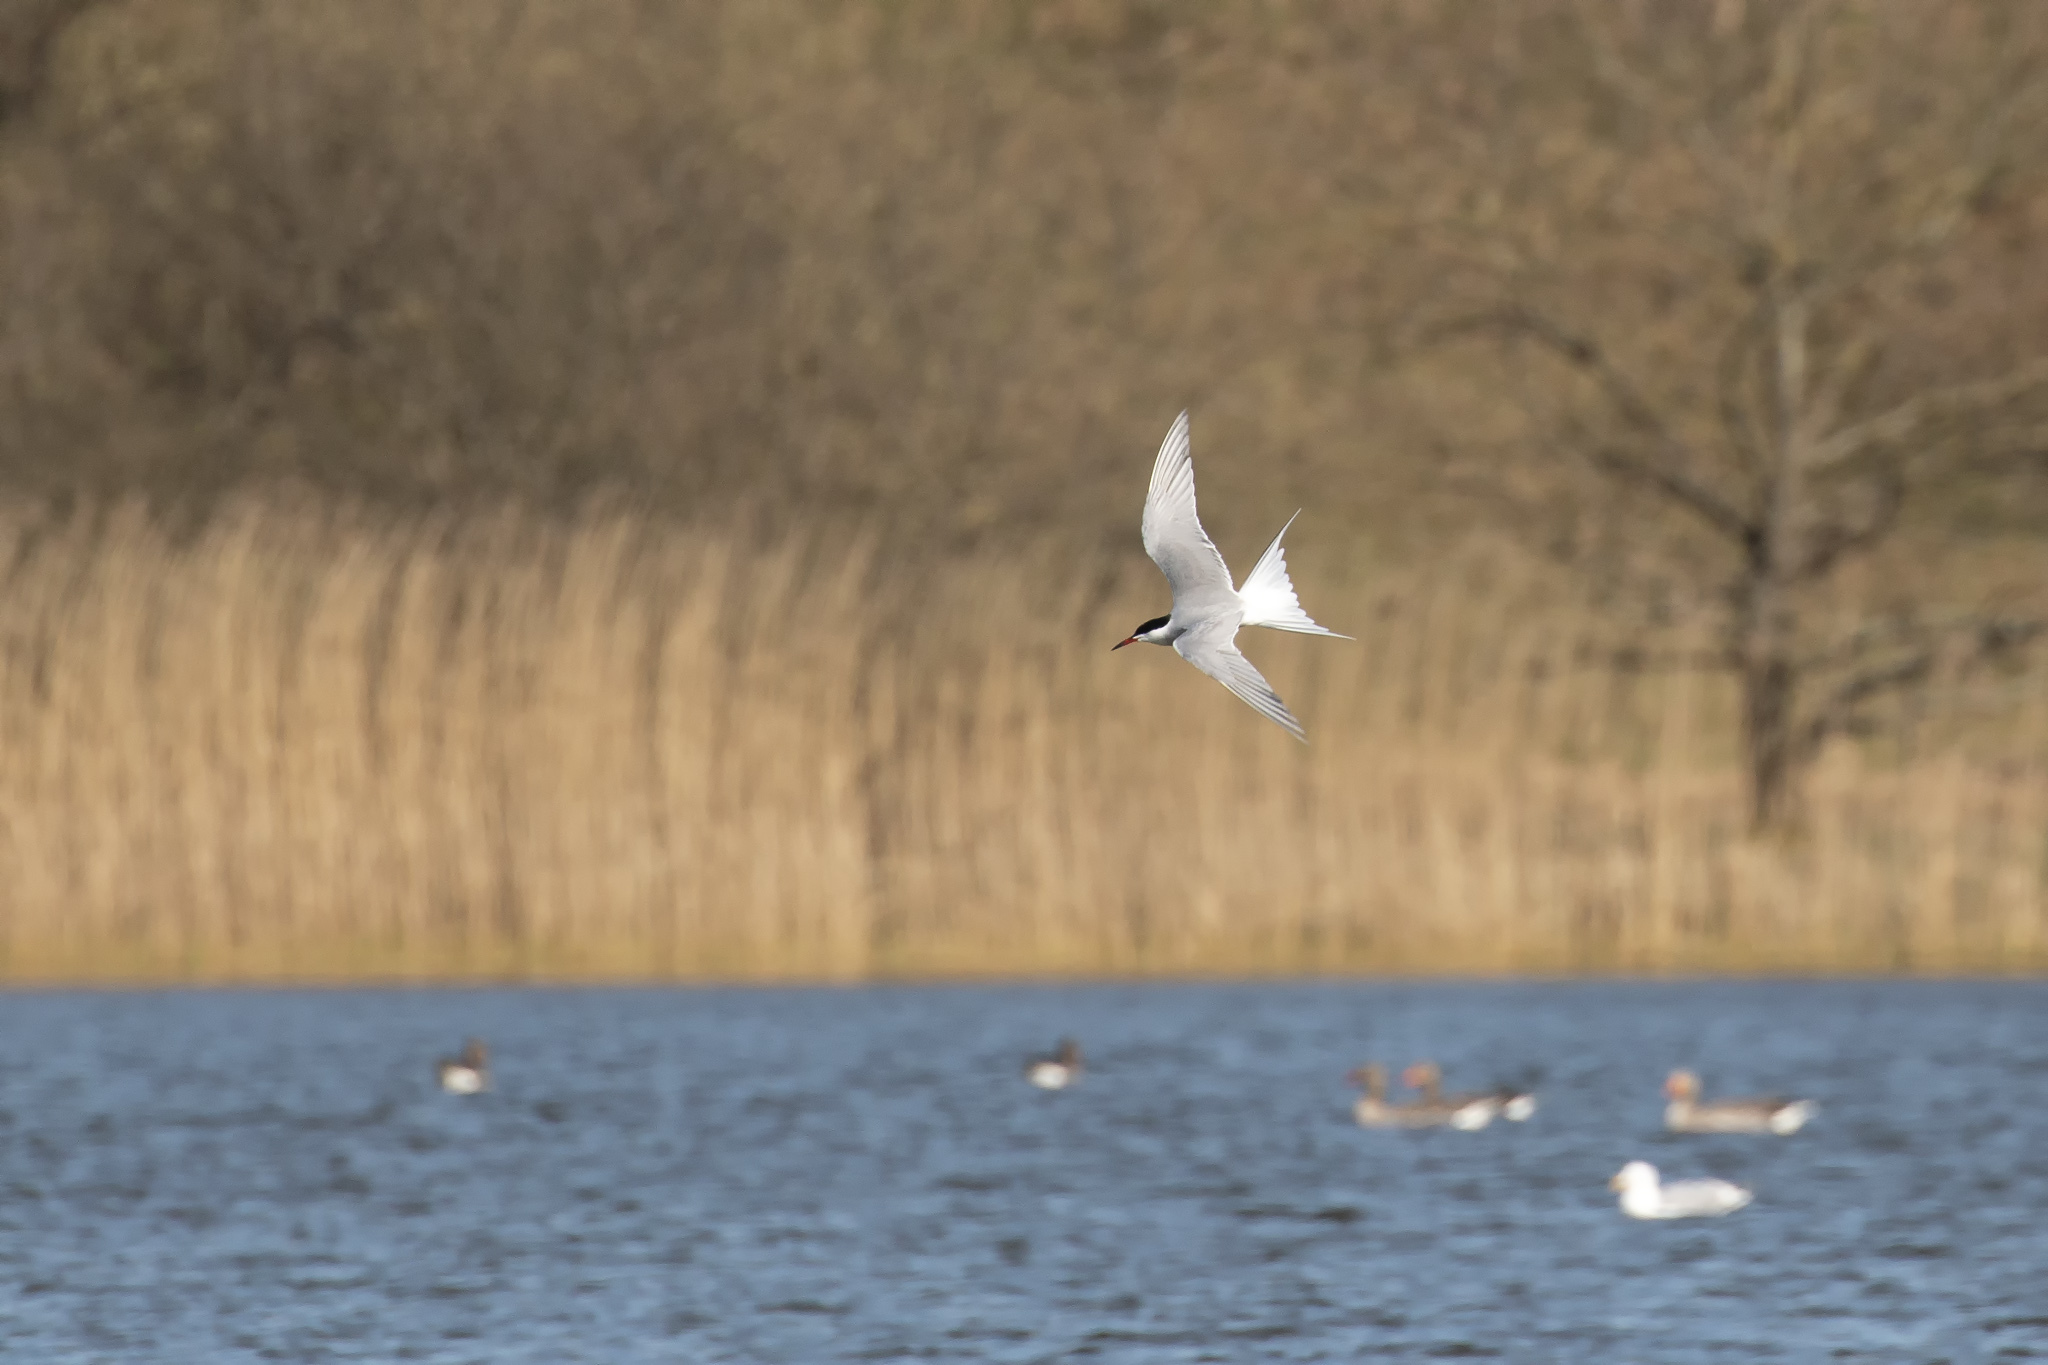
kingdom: Animalia
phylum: Chordata
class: Aves
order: Charadriiformes
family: Laridae
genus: Sterna
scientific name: Sterna hirundo
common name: Common tern
